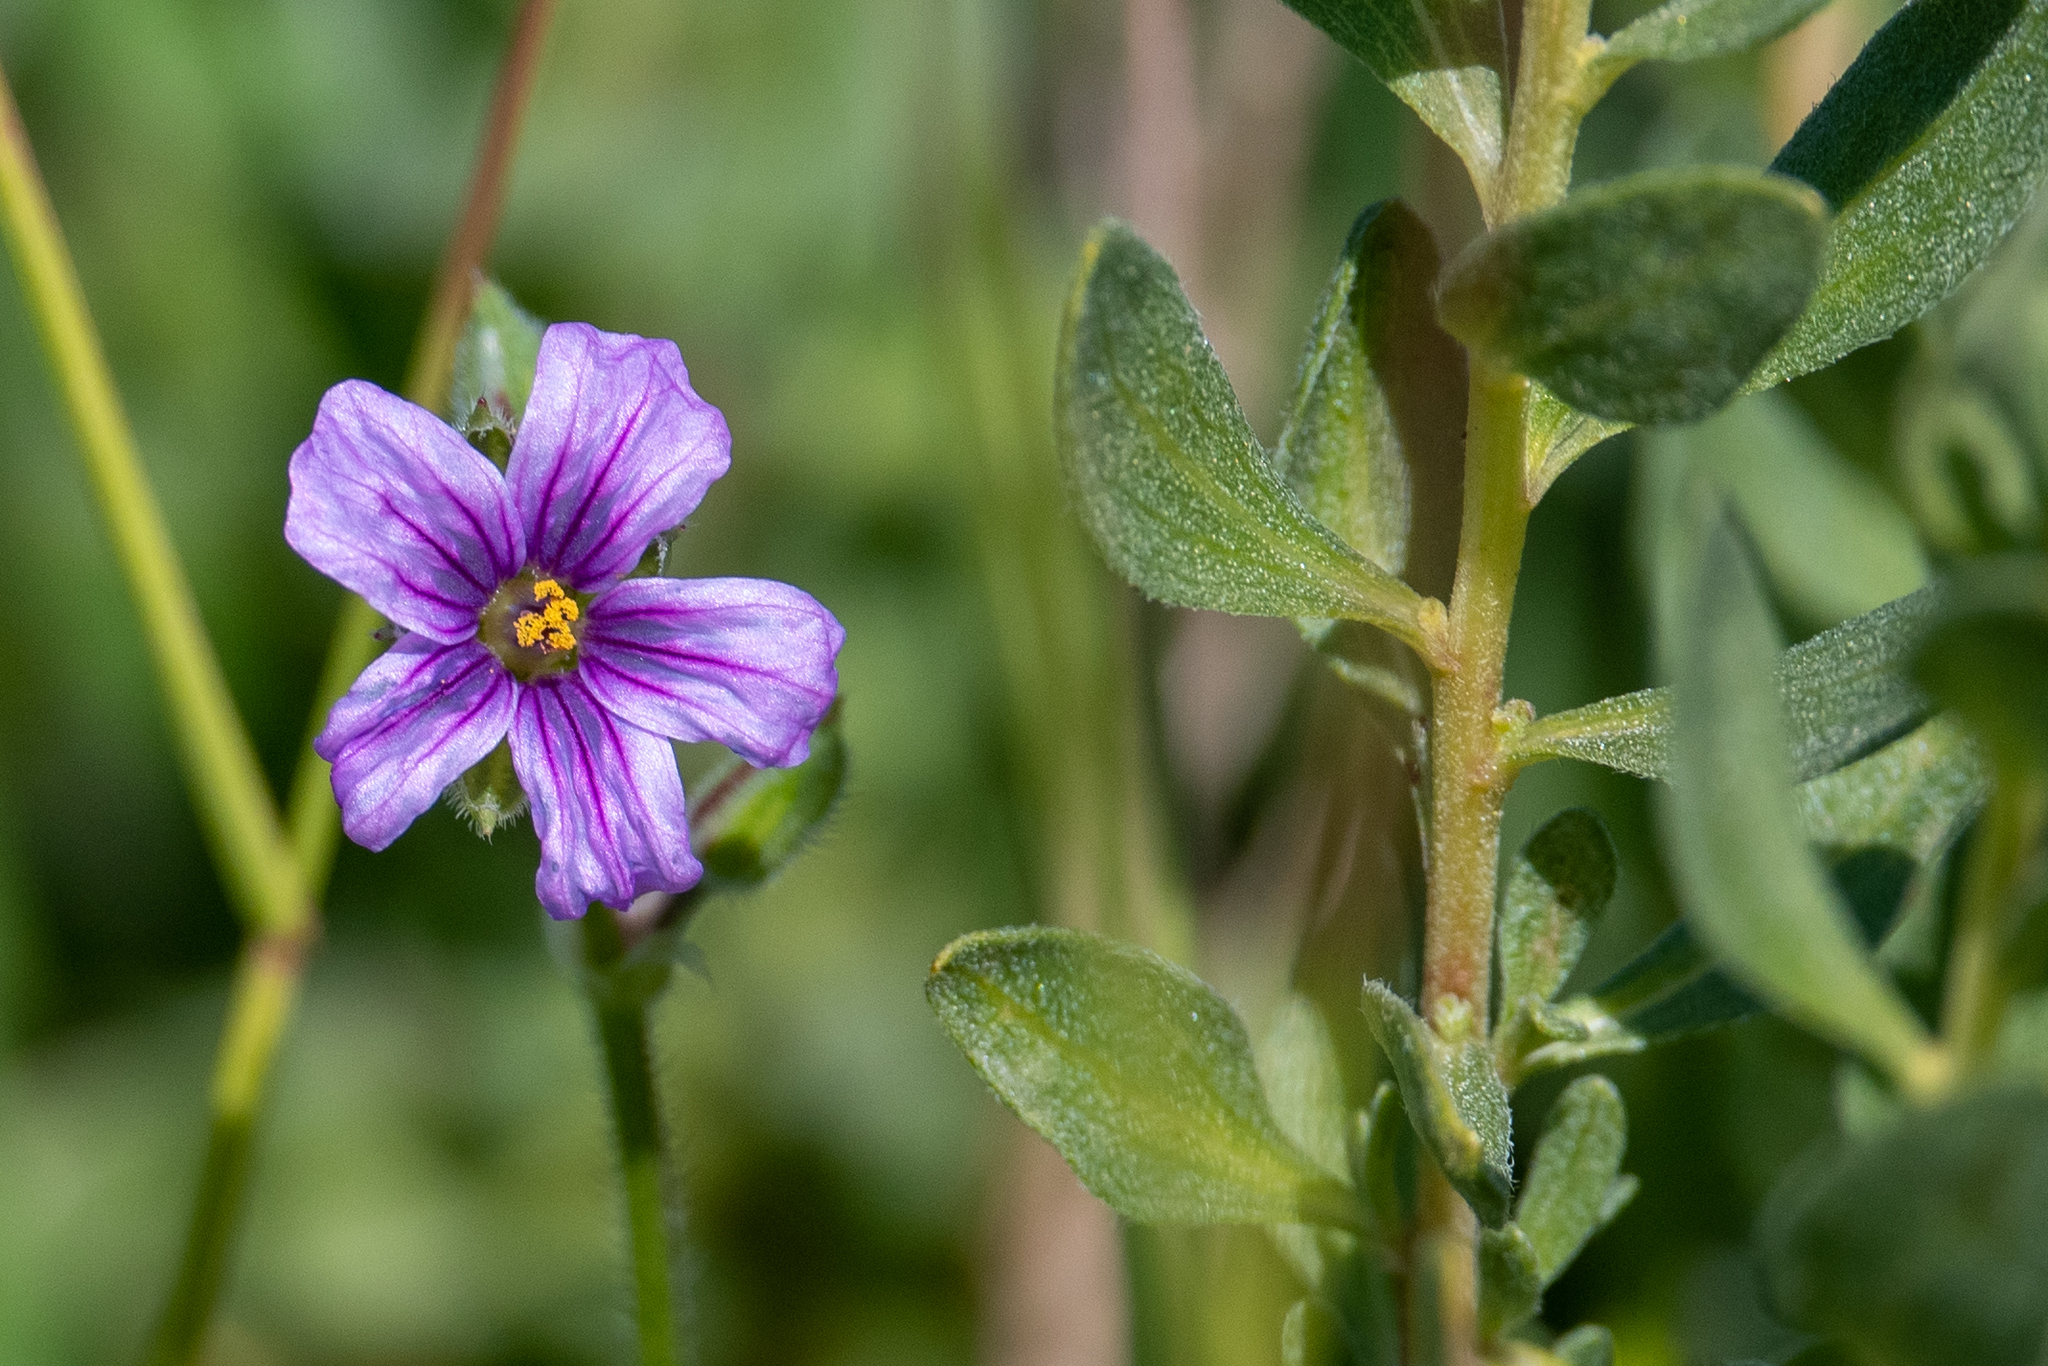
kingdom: Plantae
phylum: Tracheophyta
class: Magnoliopsida
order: Geraniales
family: Geraniaceae
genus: Erodium
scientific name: Erodium botrys
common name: Mediterranean stork's-bill
